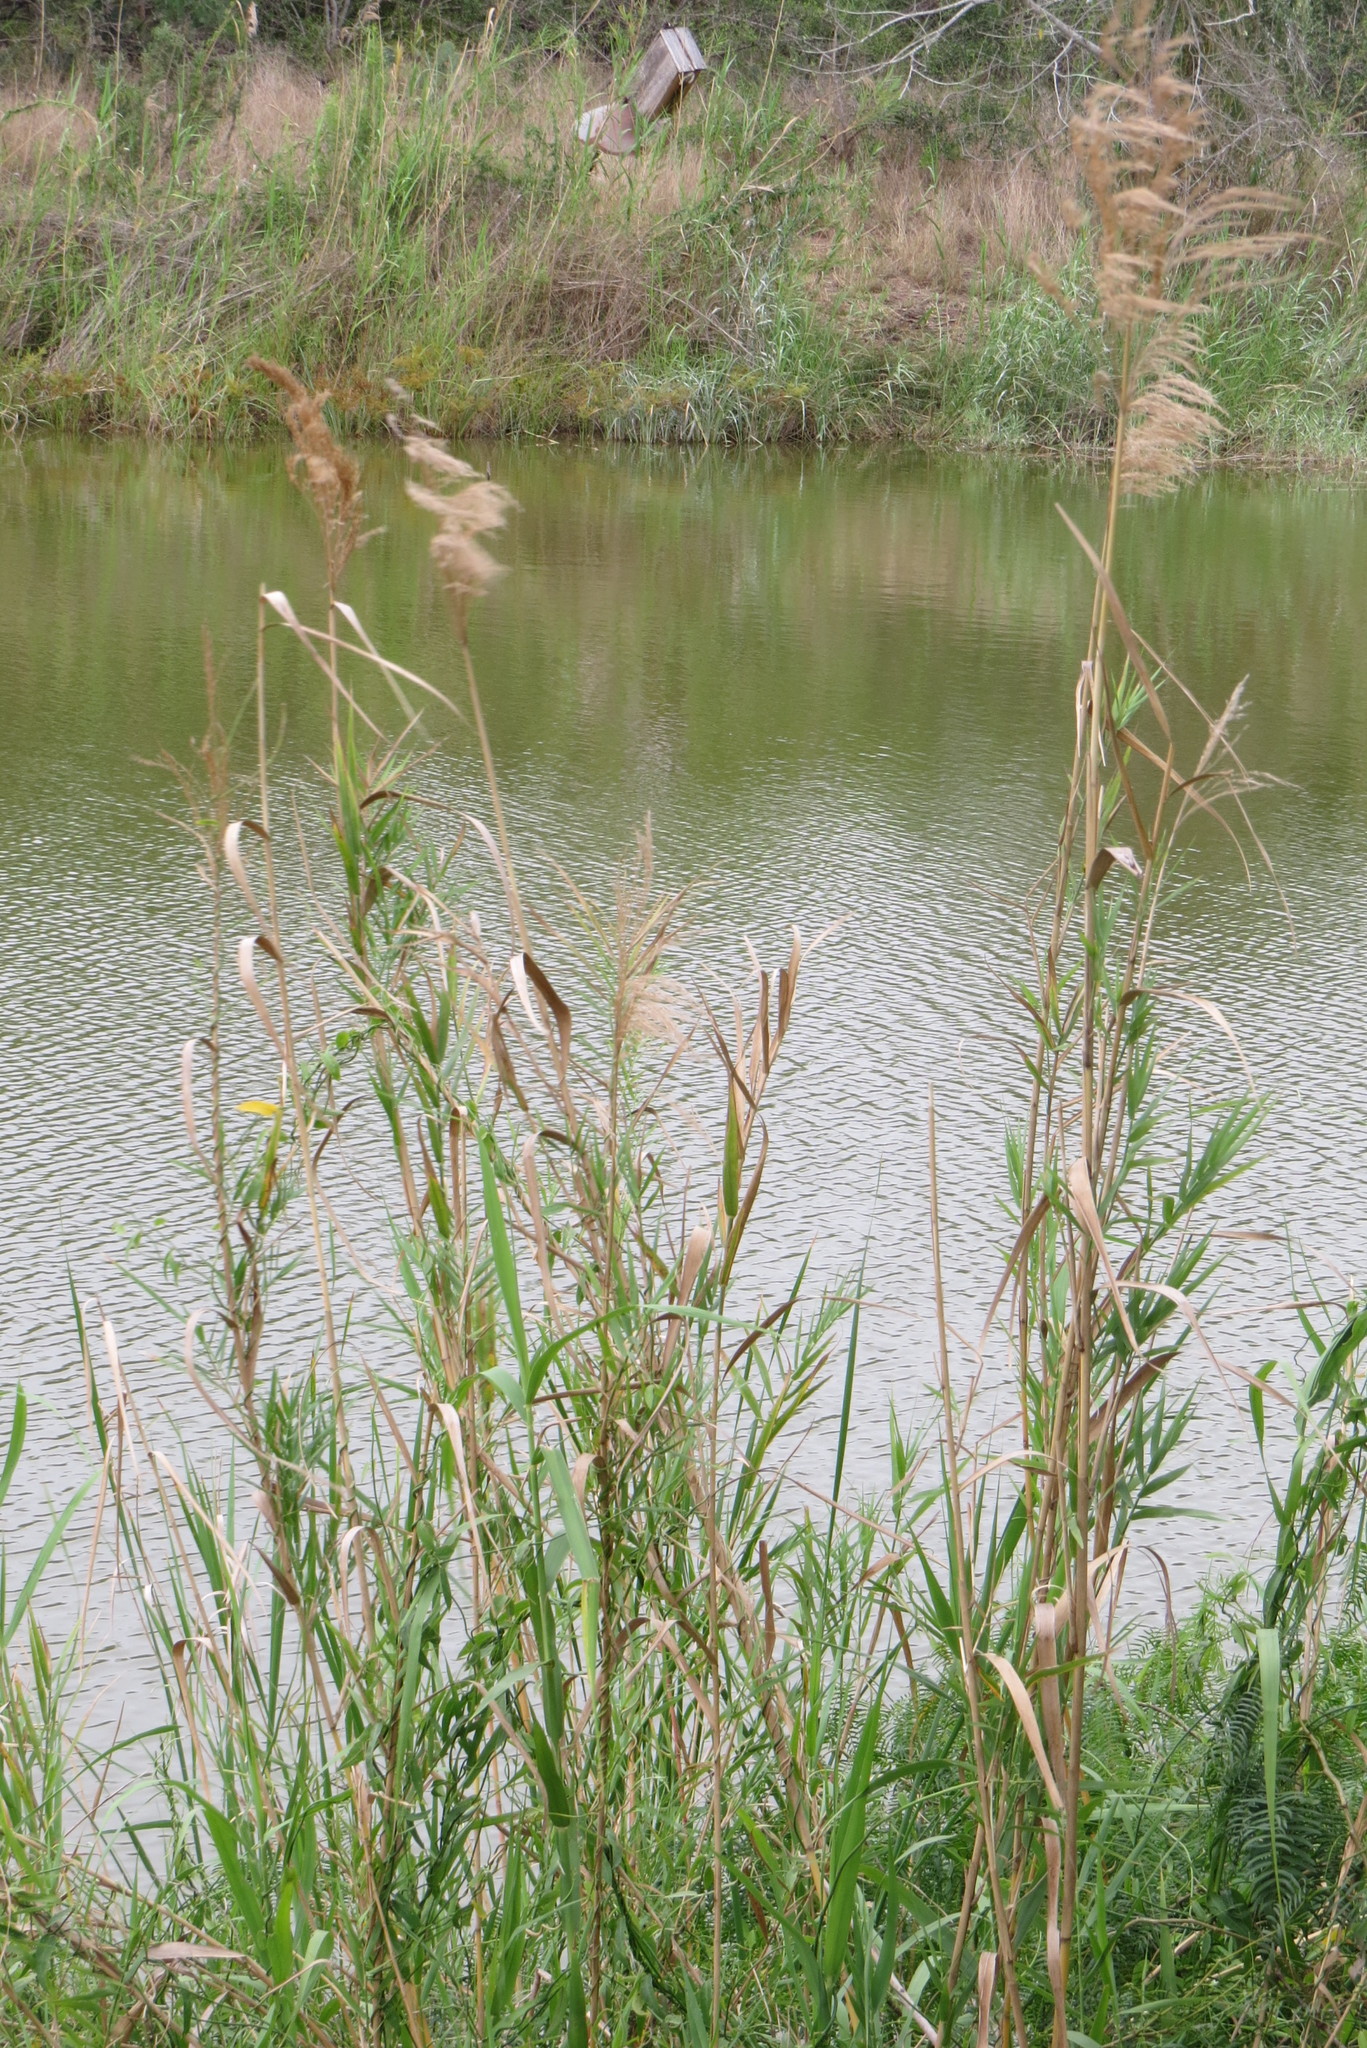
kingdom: Plantae
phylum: Tracheophyta
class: Liliopsida
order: Poales
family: Poaceae
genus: Phragmites
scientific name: Phragmites australis
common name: Common reed
